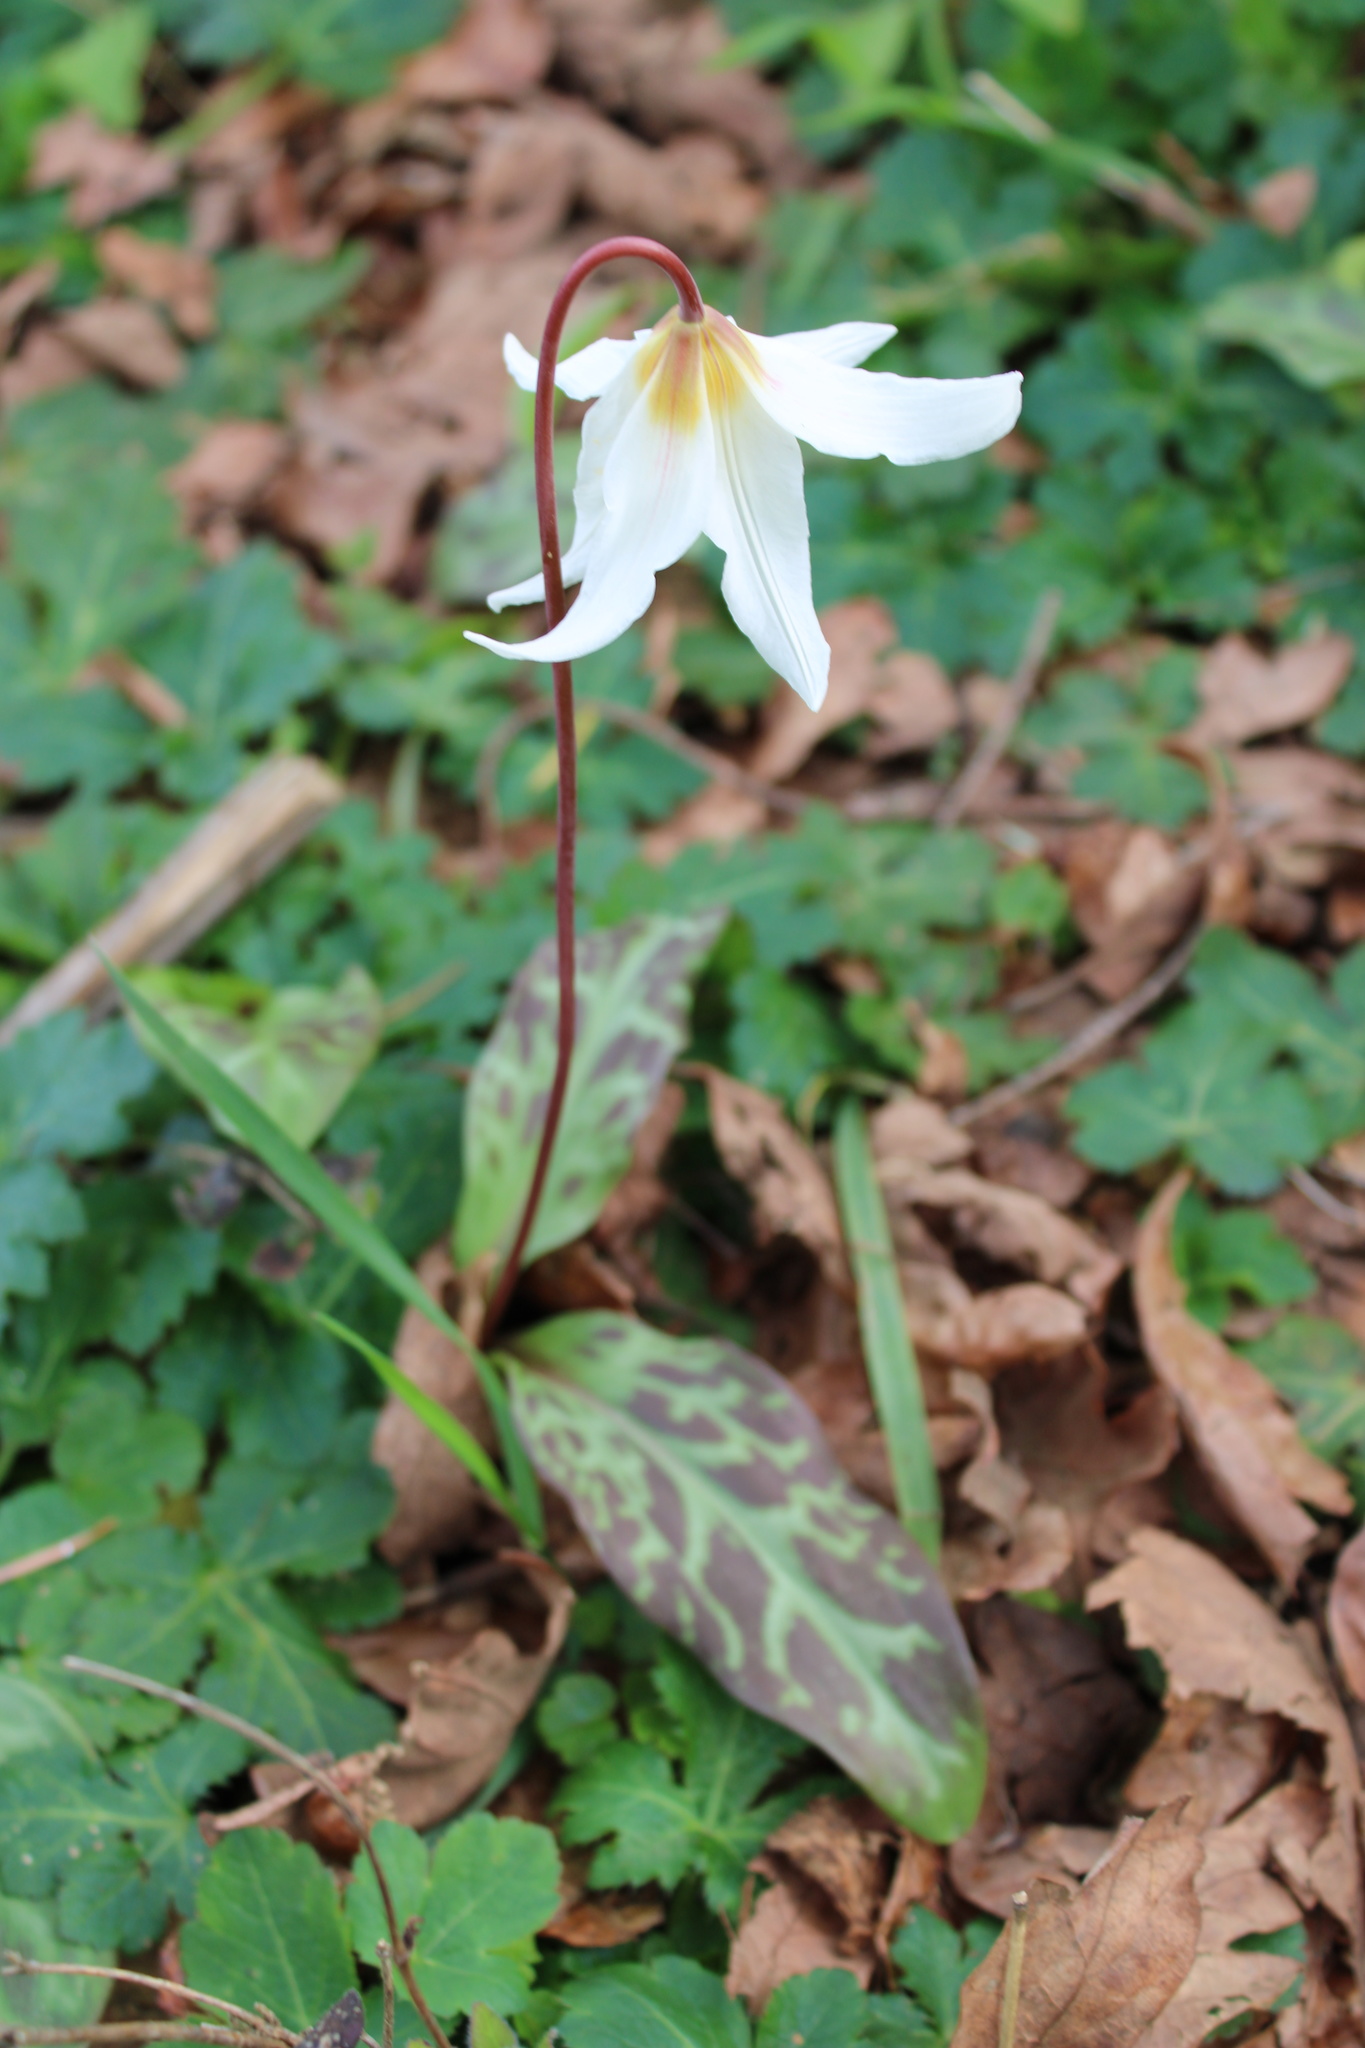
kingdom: Plantae
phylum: Tracheophyta
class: Liliopsida
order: Liliales
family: Liliaceae
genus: Erythronium
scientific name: Erythronium oregonum
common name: Giant adder's-tongue
